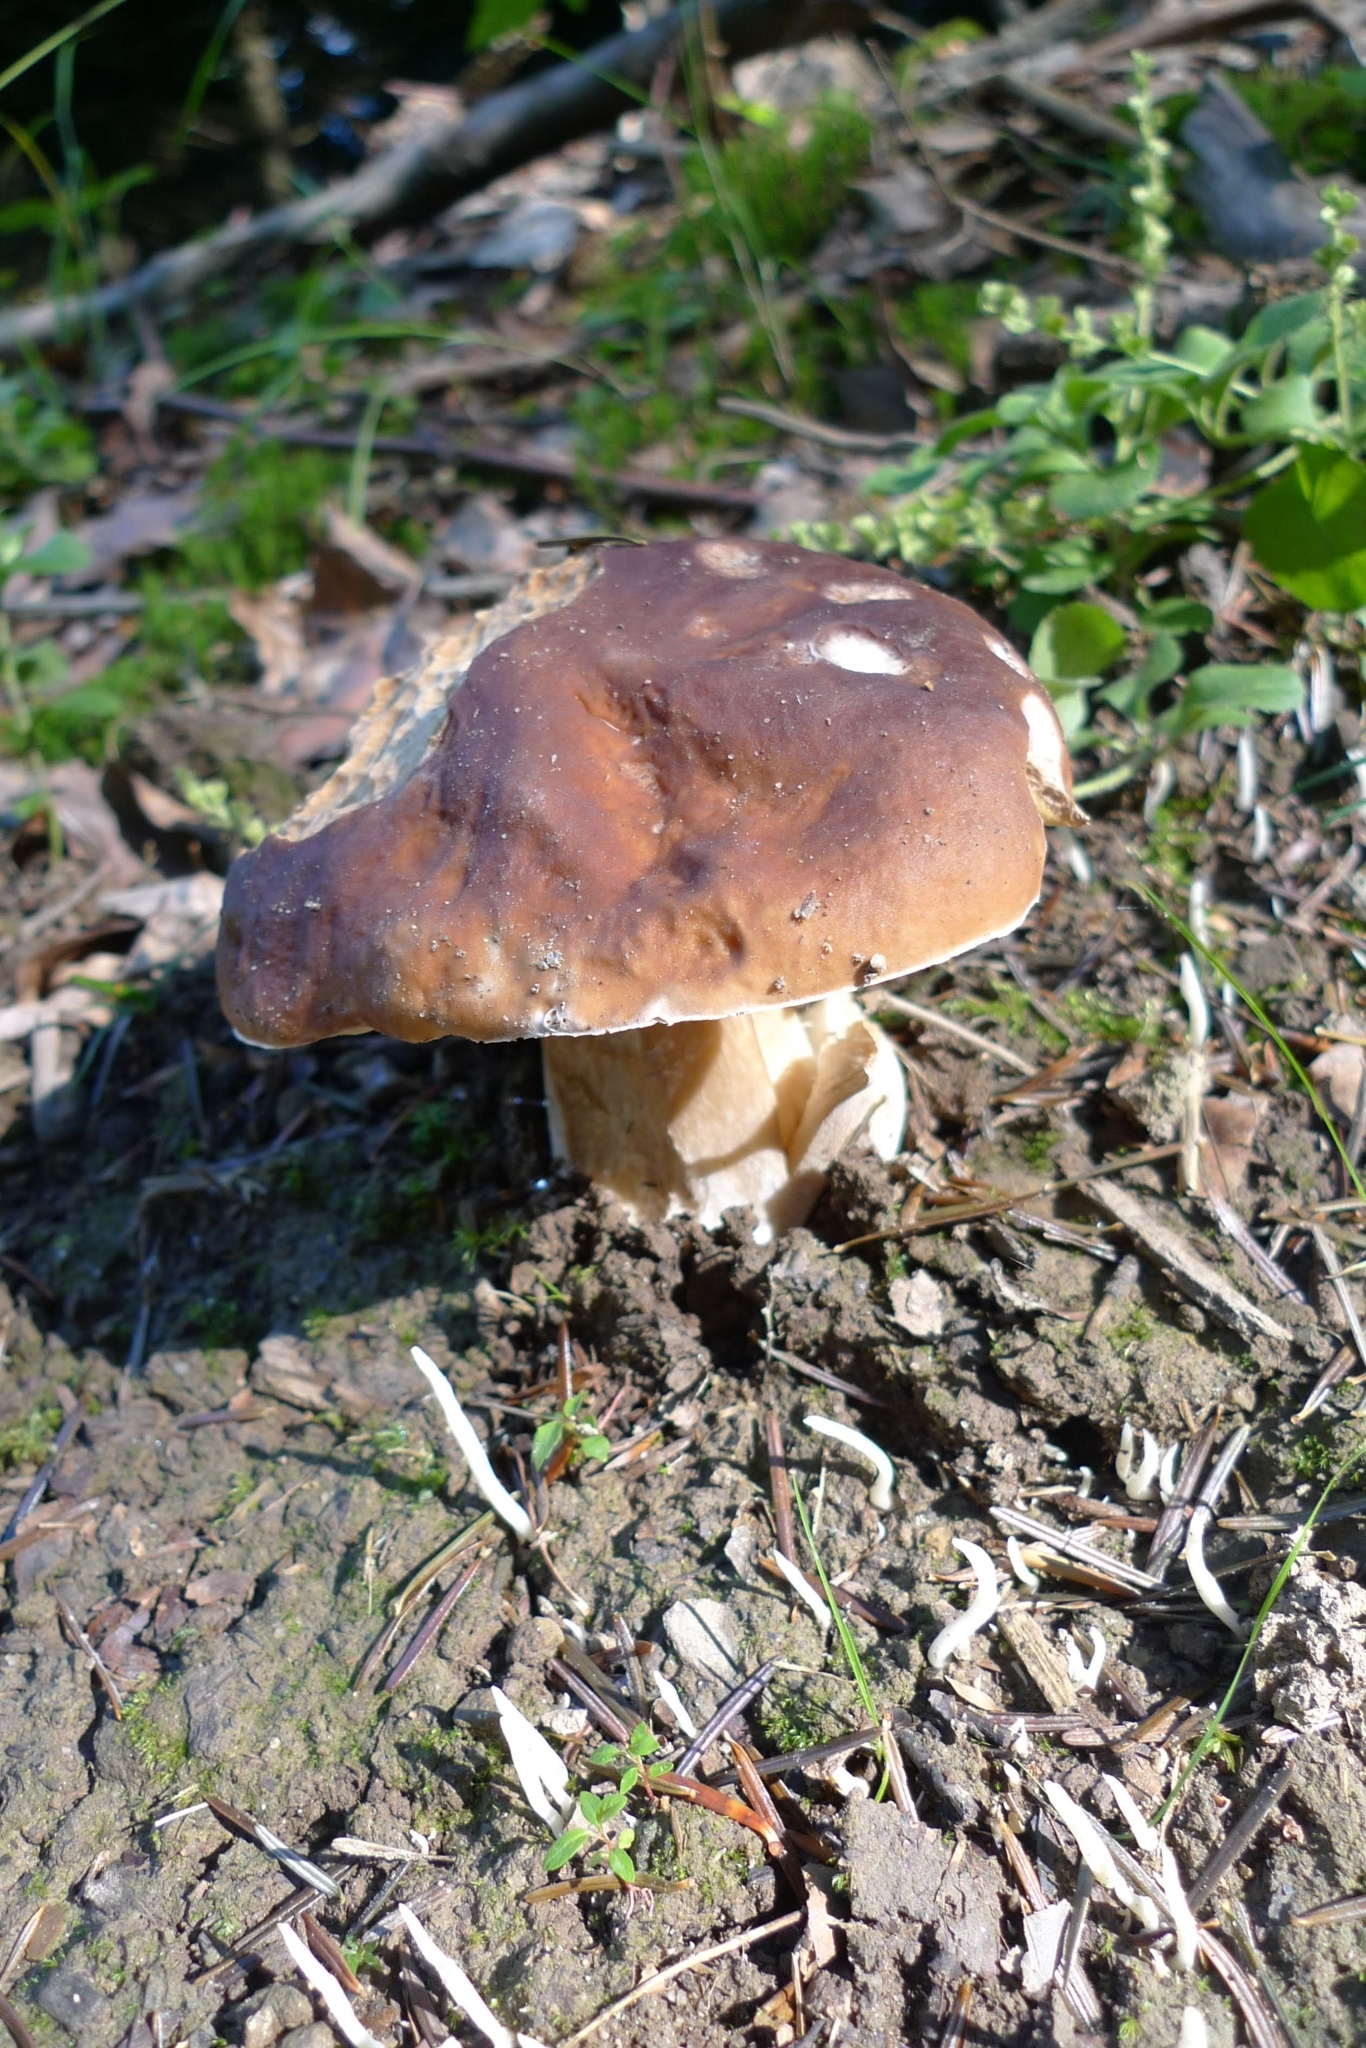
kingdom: Fungi
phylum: Basidiomycota
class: Agaricomycetes
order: Boletales
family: Boletaceae
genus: Boletus
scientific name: Boletus edulis
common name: Cep
